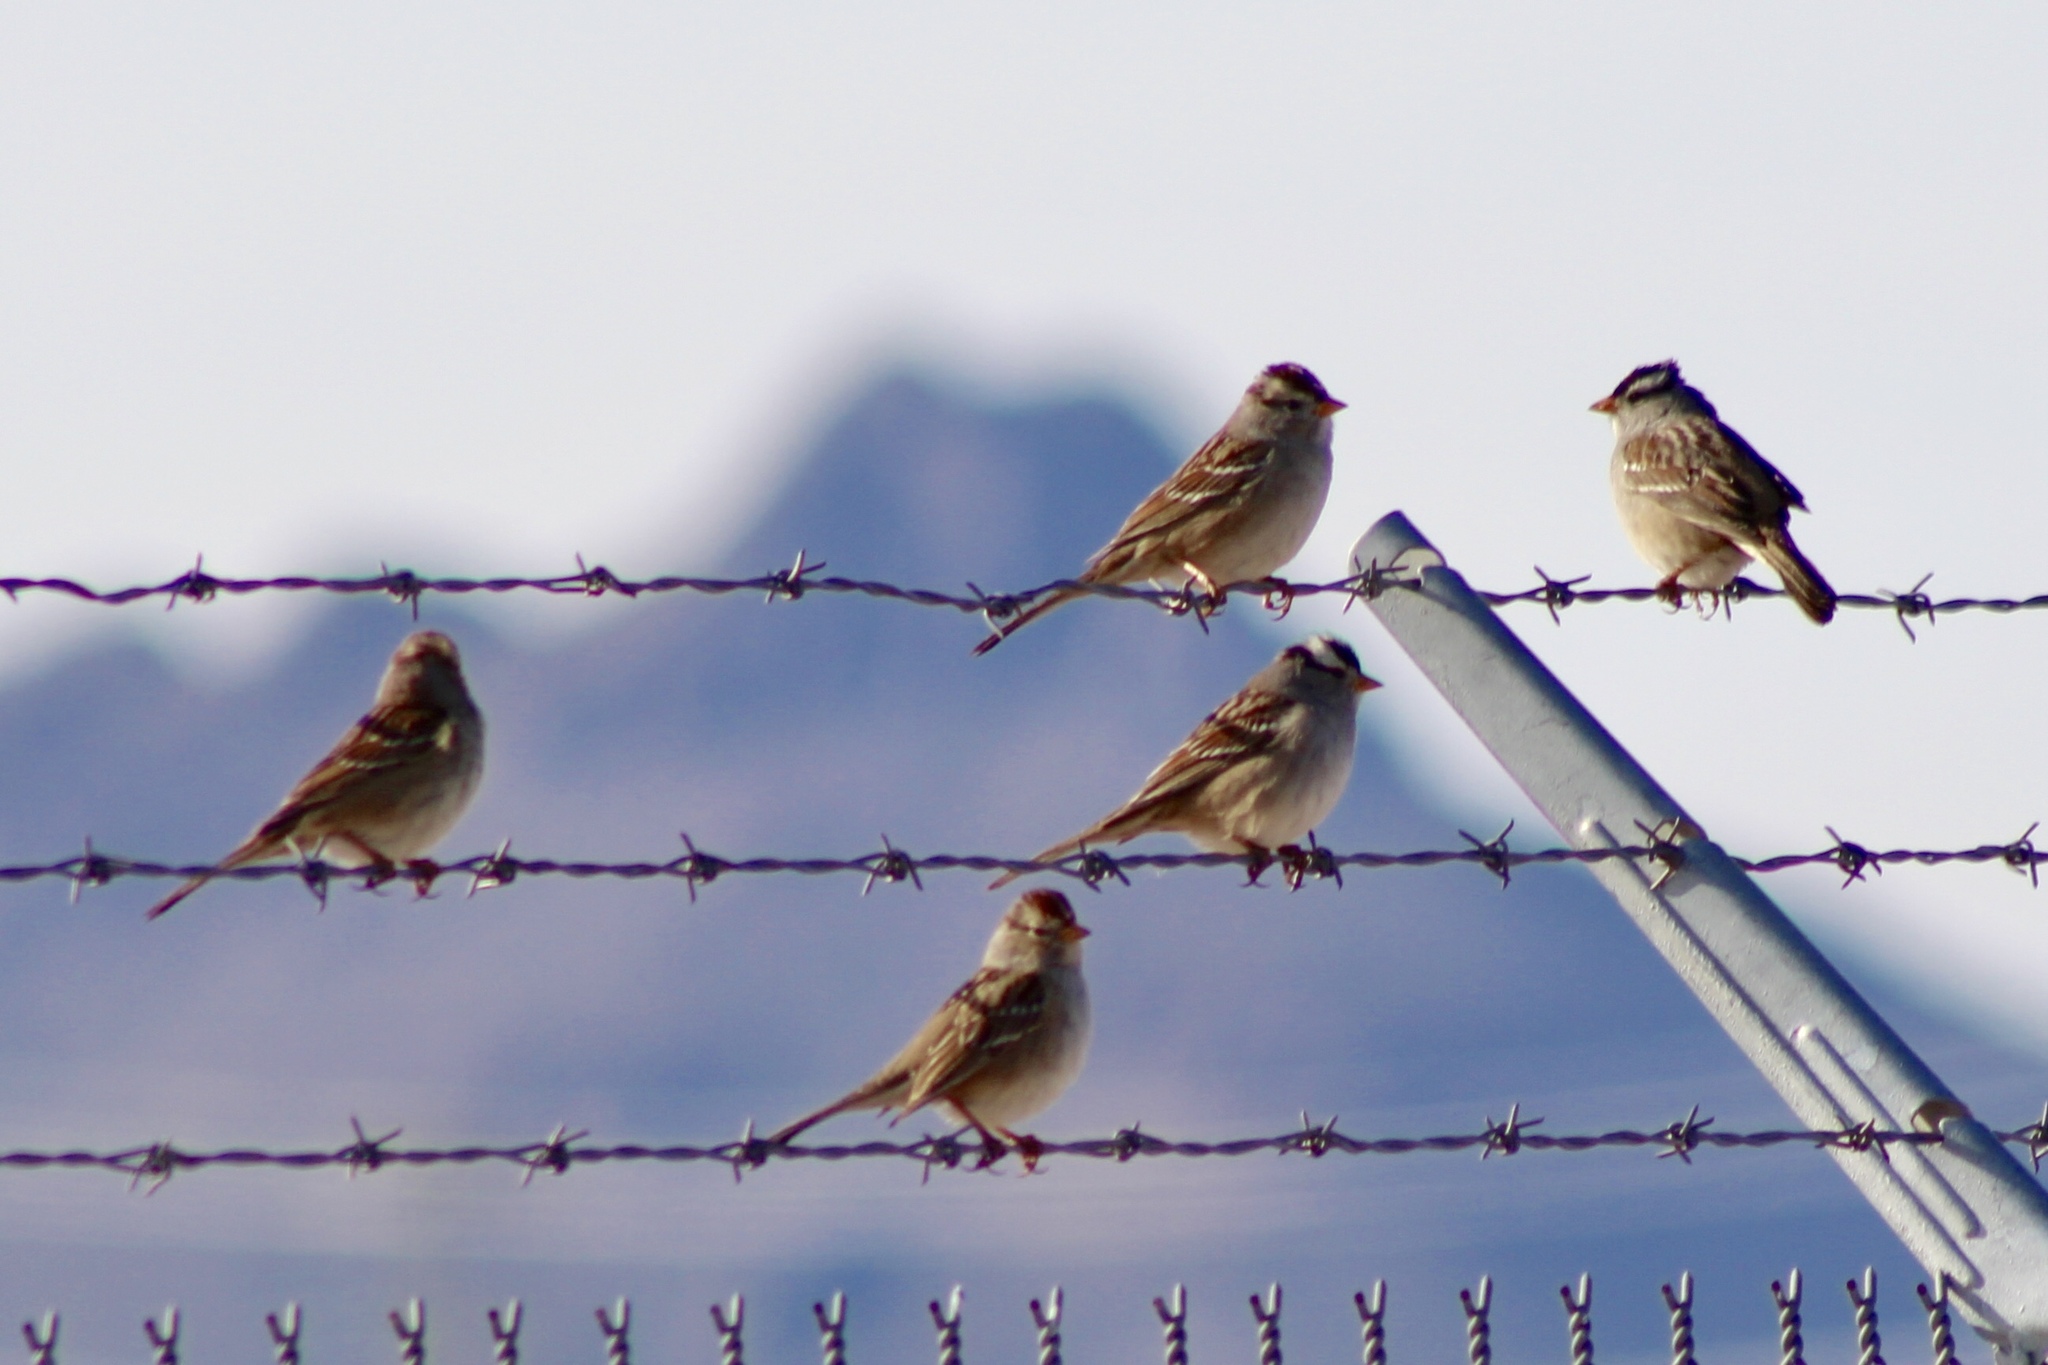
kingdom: Animalia
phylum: Chordata
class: Aves
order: Passeriformes
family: Passerellidae
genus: Zonotrichia
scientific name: Zonotrichia leucophrys
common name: White-crowned sparrow
